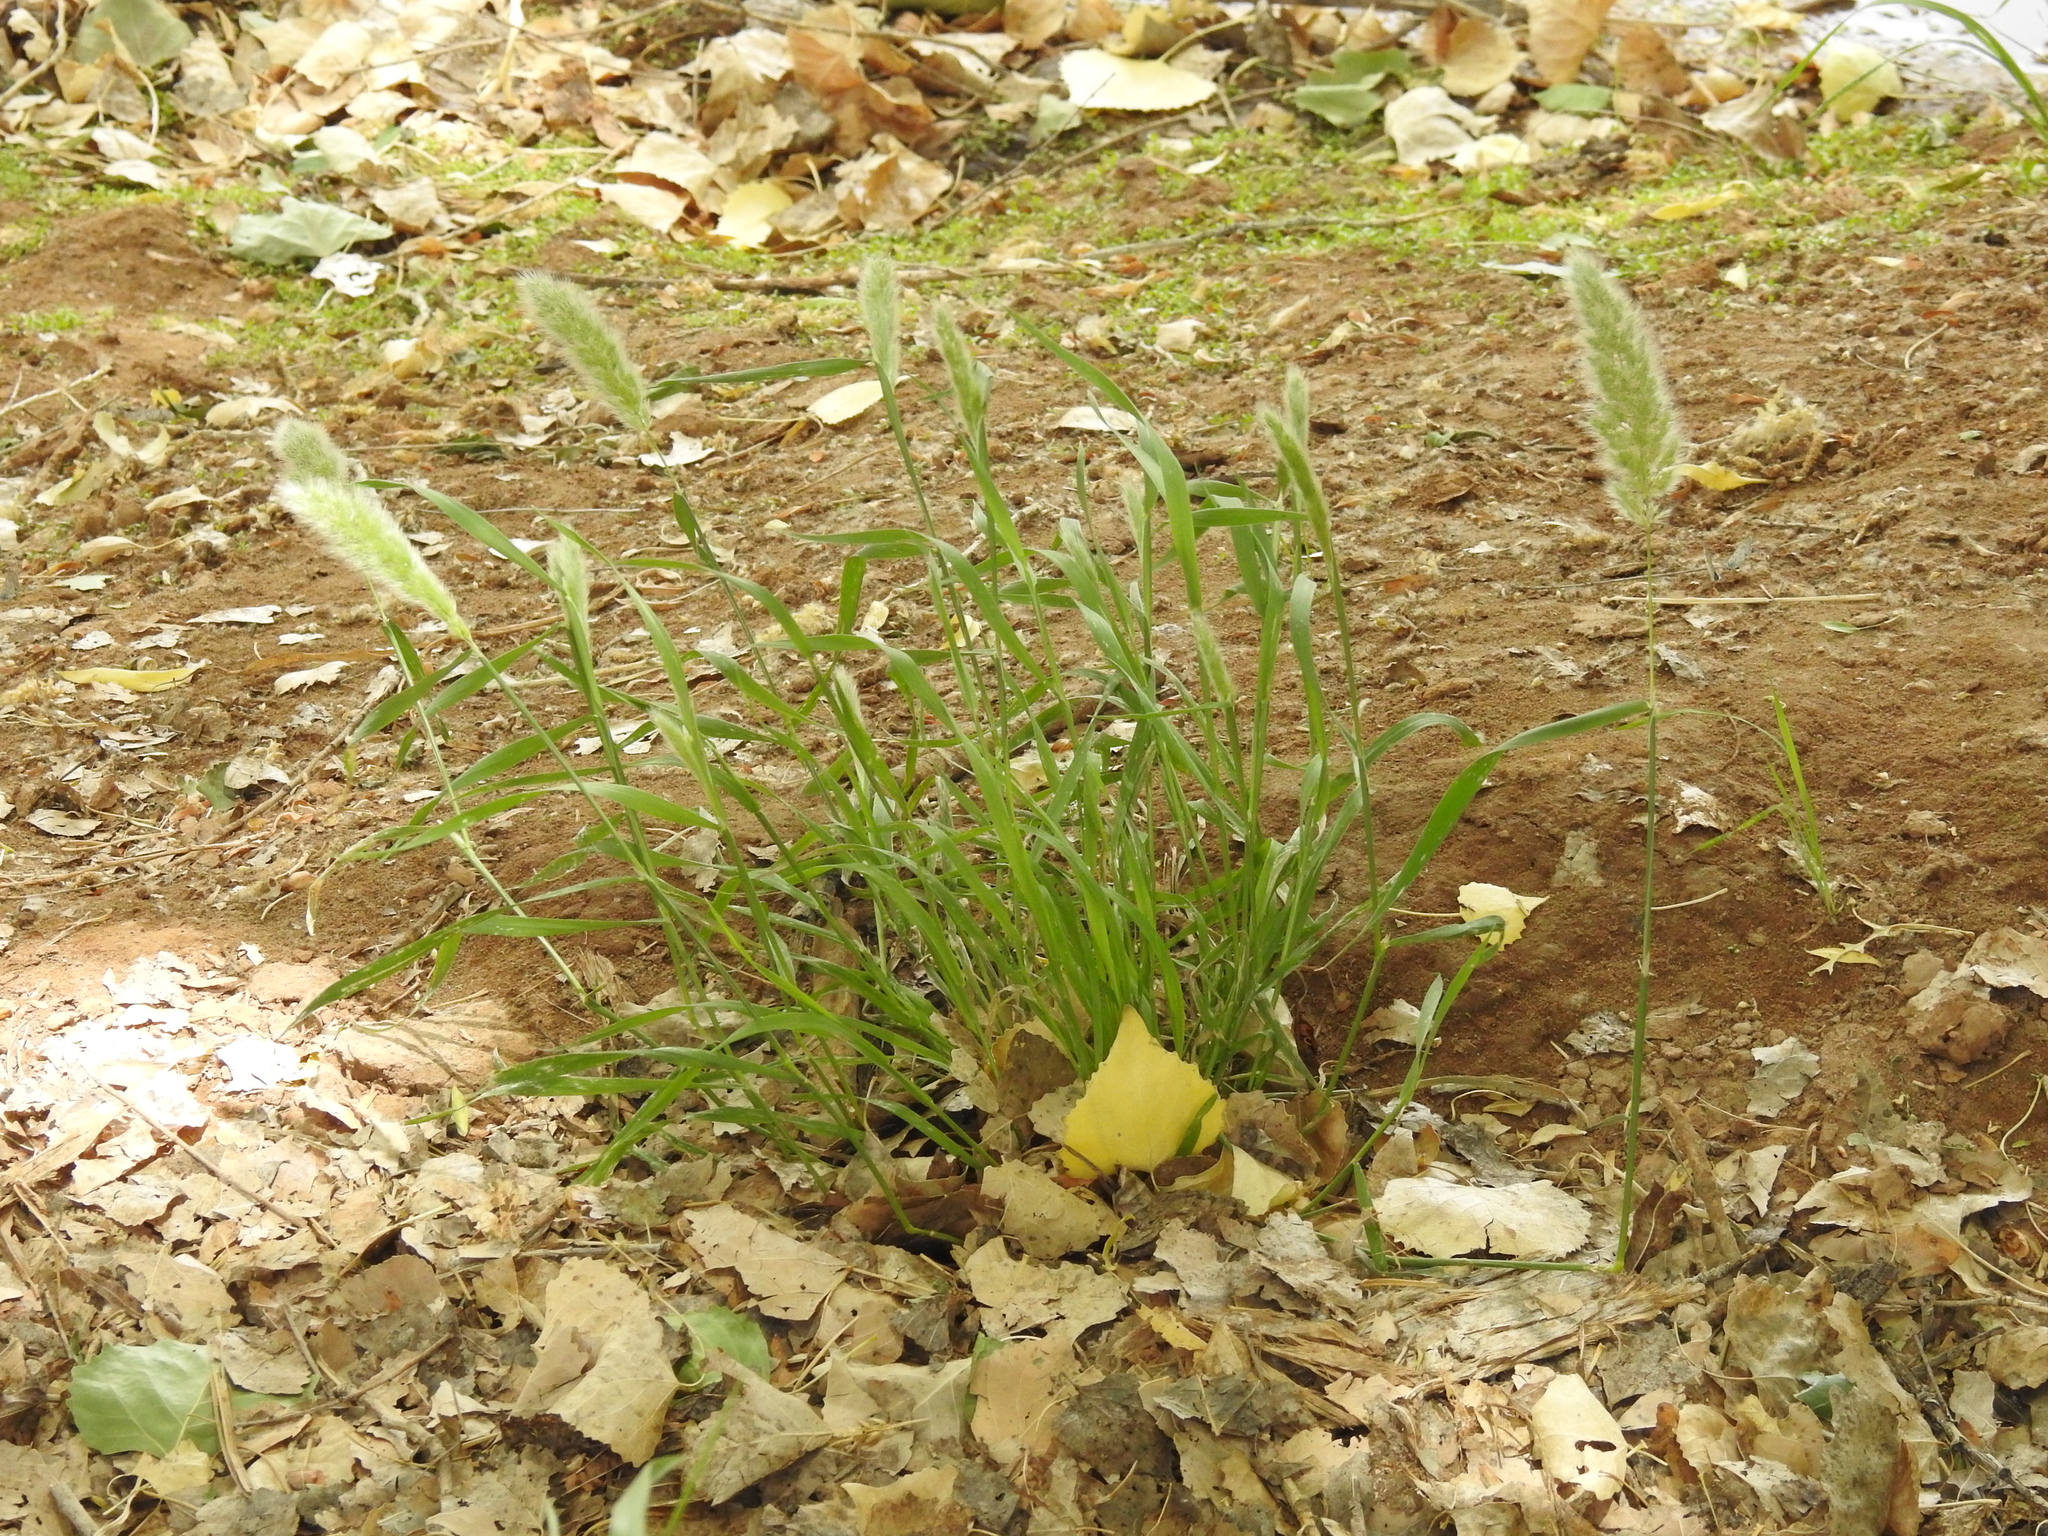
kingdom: Plantae
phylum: Tracheophyta
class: Liliopsida
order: Poales
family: Poaceae
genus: Polypogon
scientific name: Polypogon monspeliensis
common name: Annual rabbitsfoot grass
